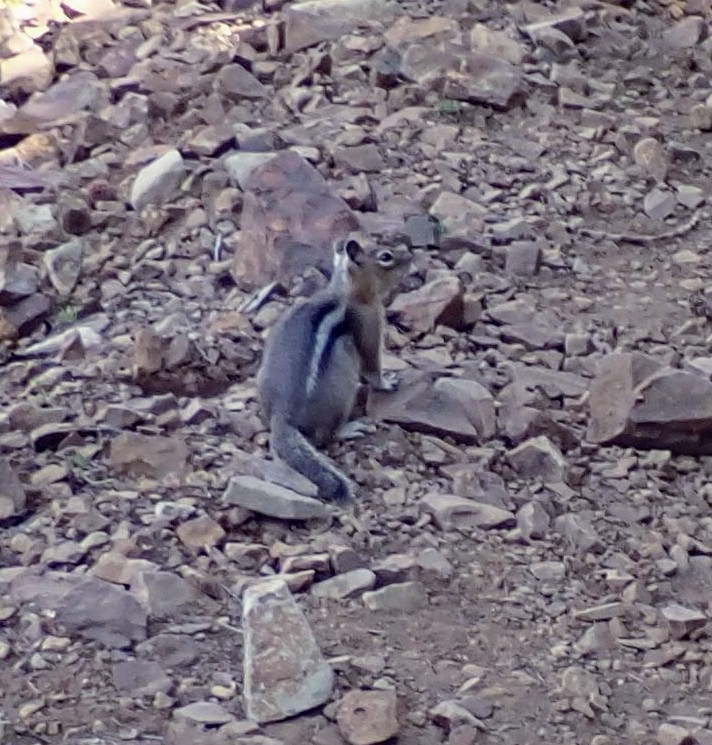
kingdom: Animalia
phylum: Chordata
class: Mammalia
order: Rodentia
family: Sciuridae
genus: Callospermophilus
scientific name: Callospermophilus saturatus
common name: Cascade golden-mantled ground squirrel
